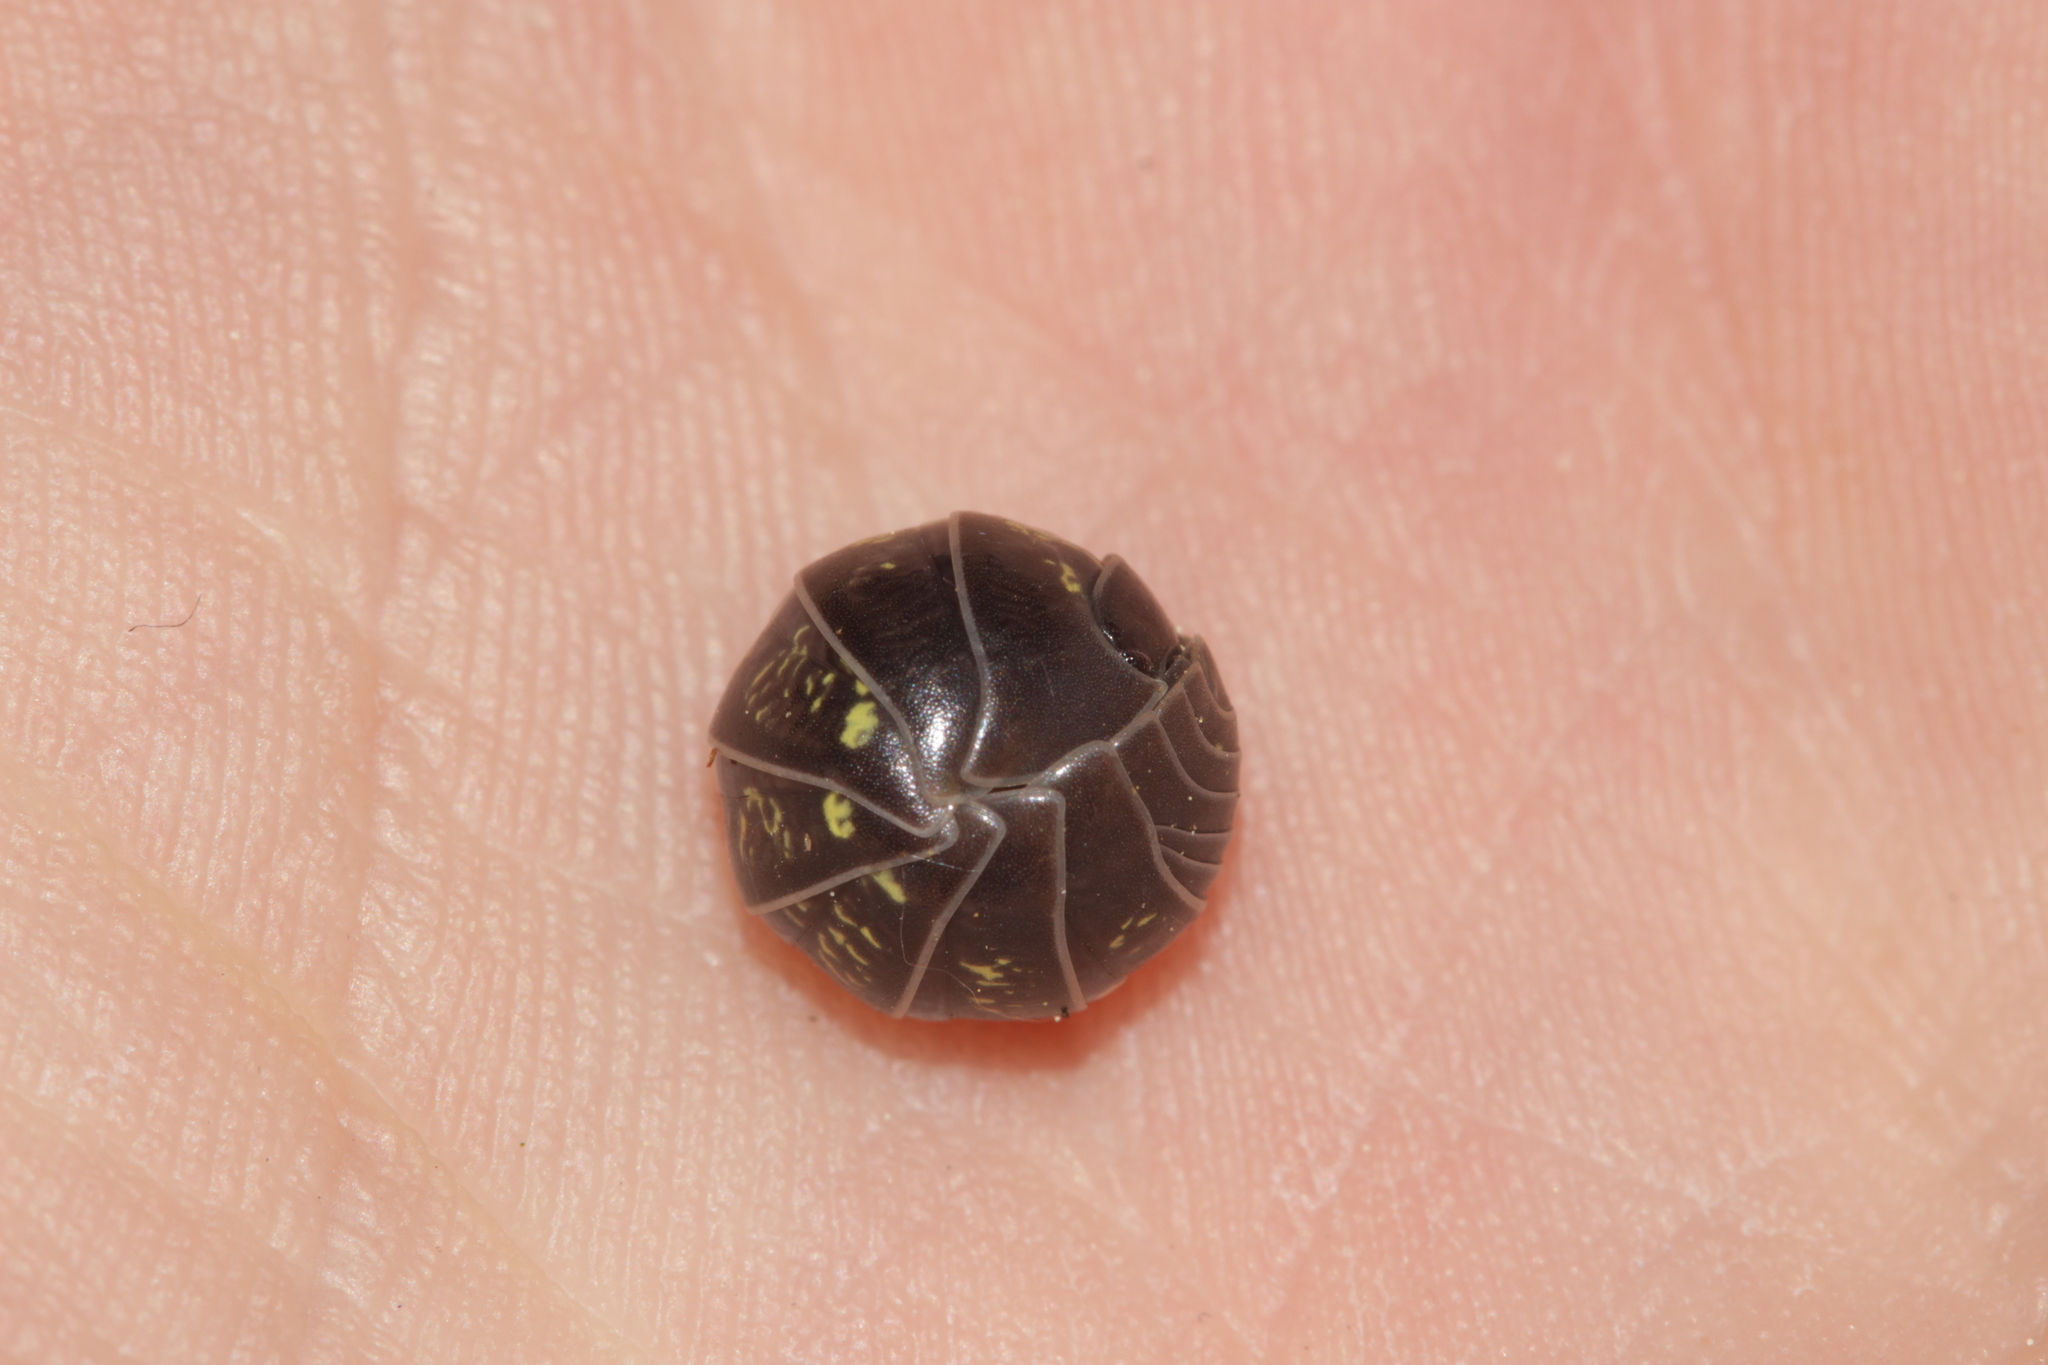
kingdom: Animalia
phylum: Arthropoda
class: Malacostraca
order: Isopoda
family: Armadillidiidae
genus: Armadillidium
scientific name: Armadillidium vulgare
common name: Common pill woodlouse
